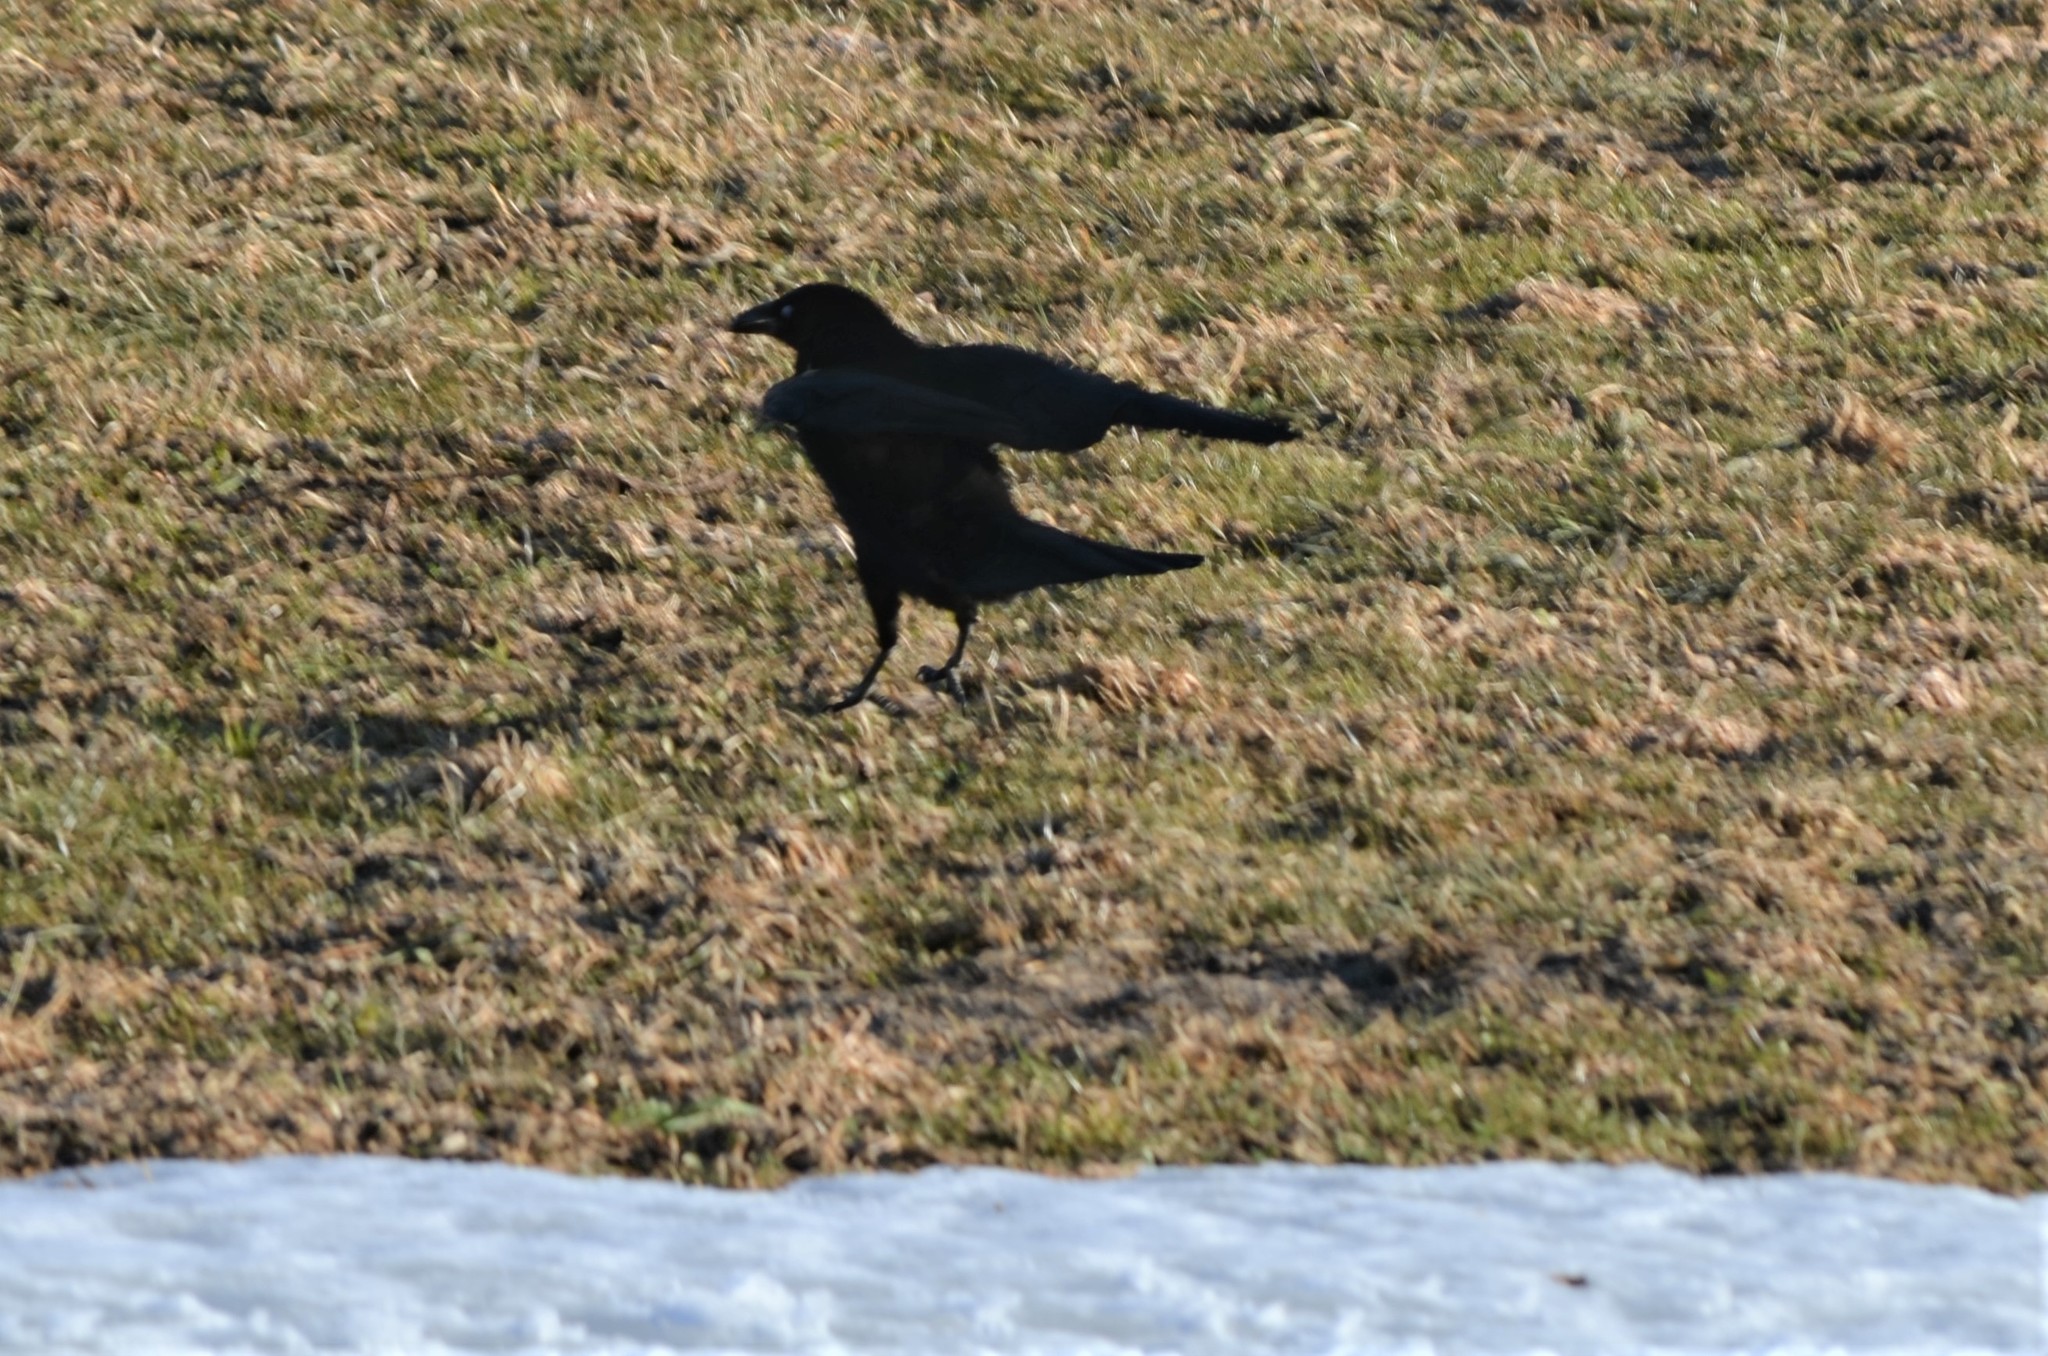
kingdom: Animalia
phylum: Chordata
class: Aves
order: Passeriformes
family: Corvidae
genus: Corvus
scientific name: Corvus corone
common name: Carrion crow
